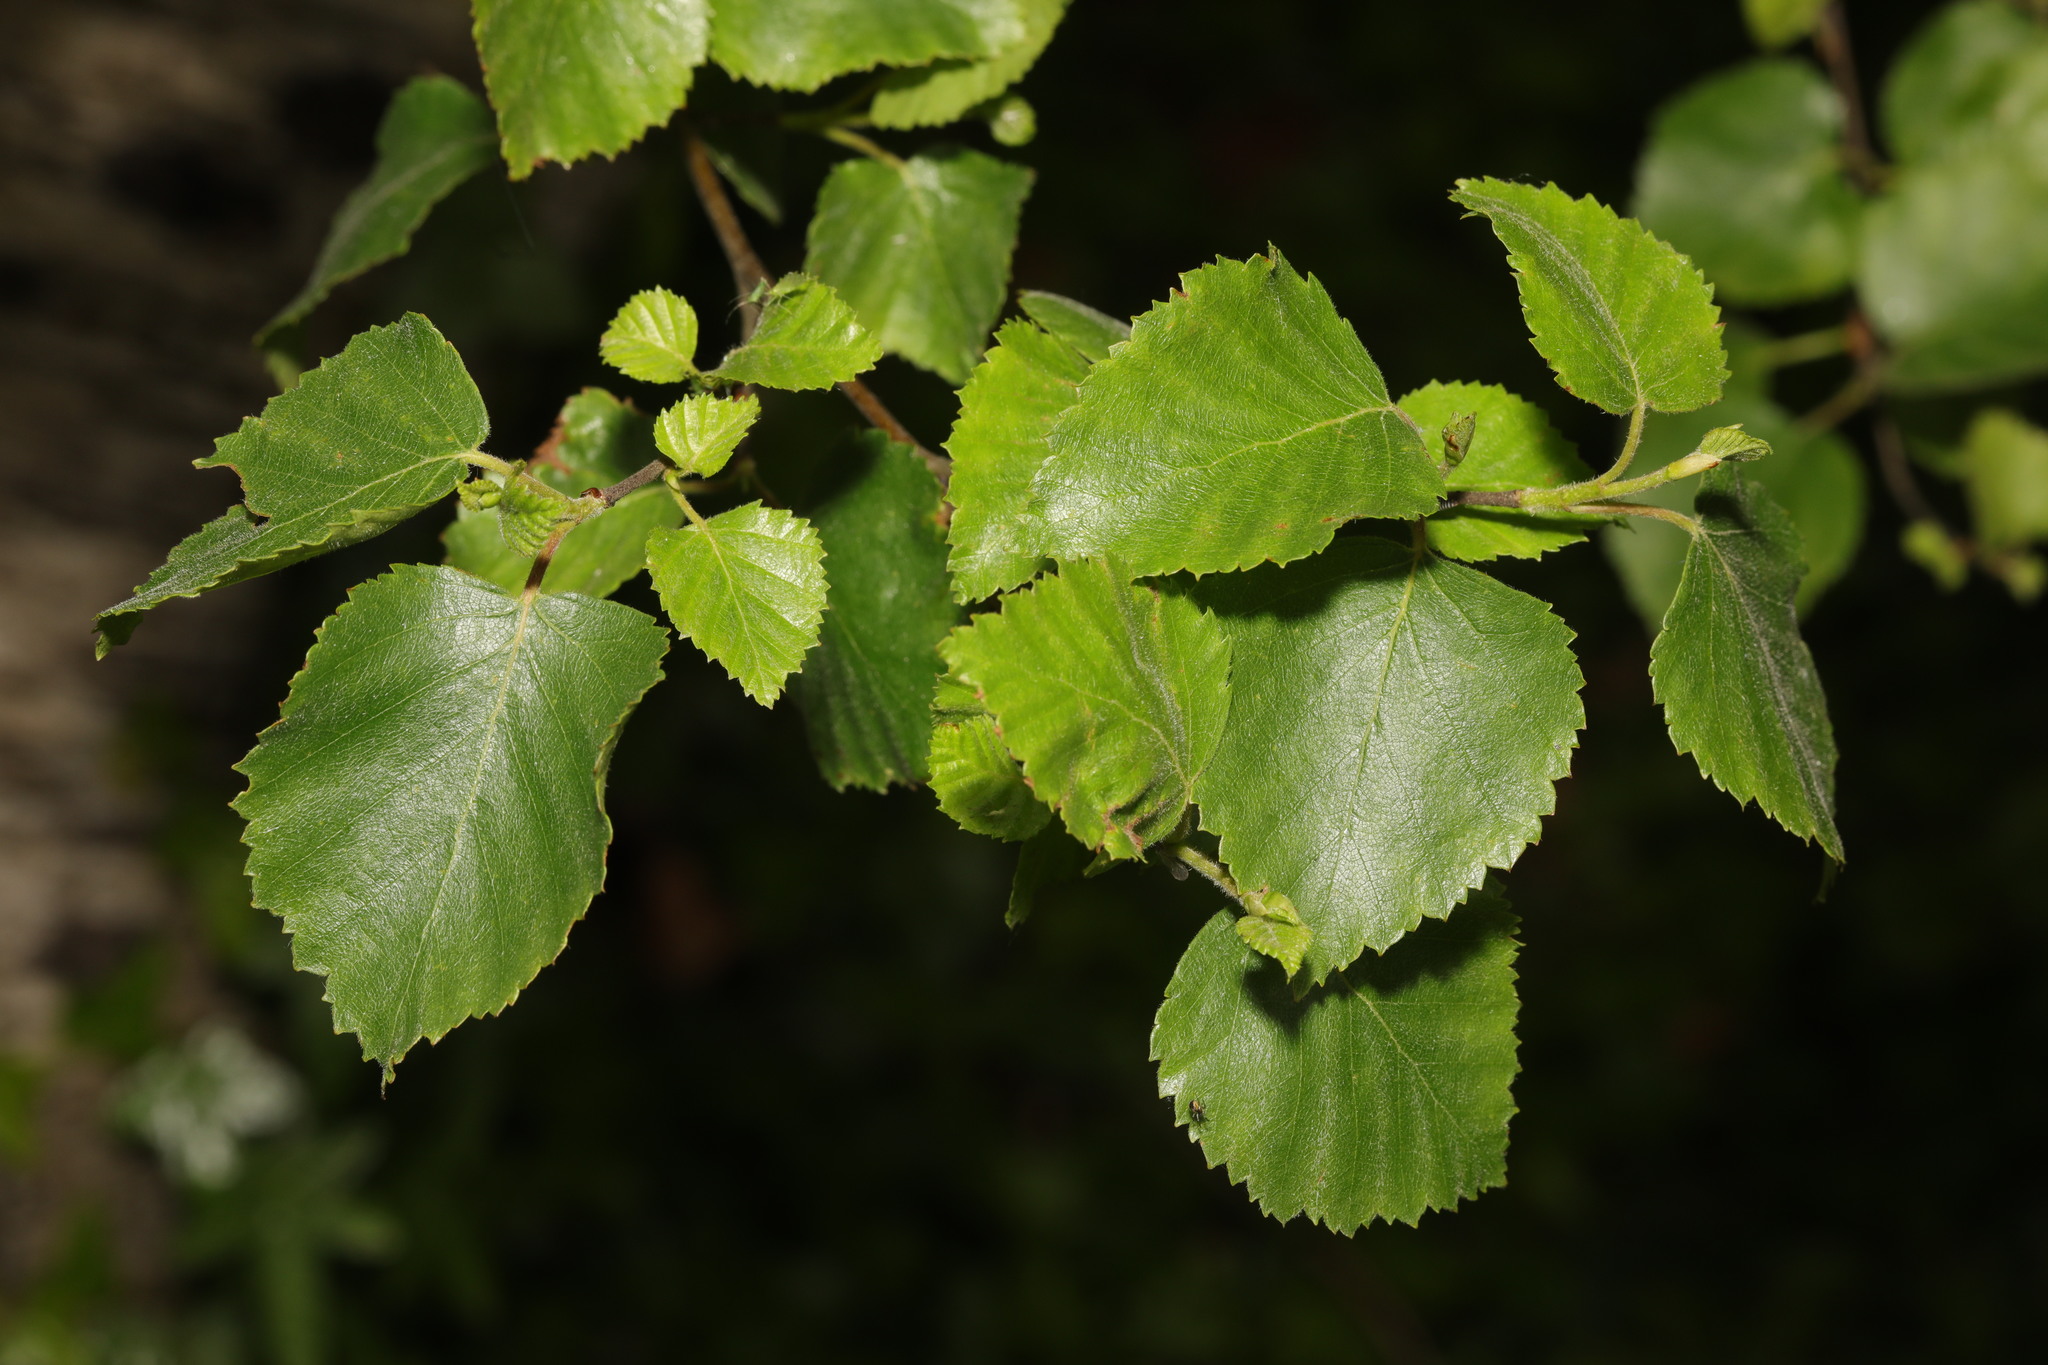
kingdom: Plantae
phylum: Tracheophyta
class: Magnoliopsida
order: Fagales
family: Betulaceae
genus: Betula
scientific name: Betula pubescens
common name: Downy birch
